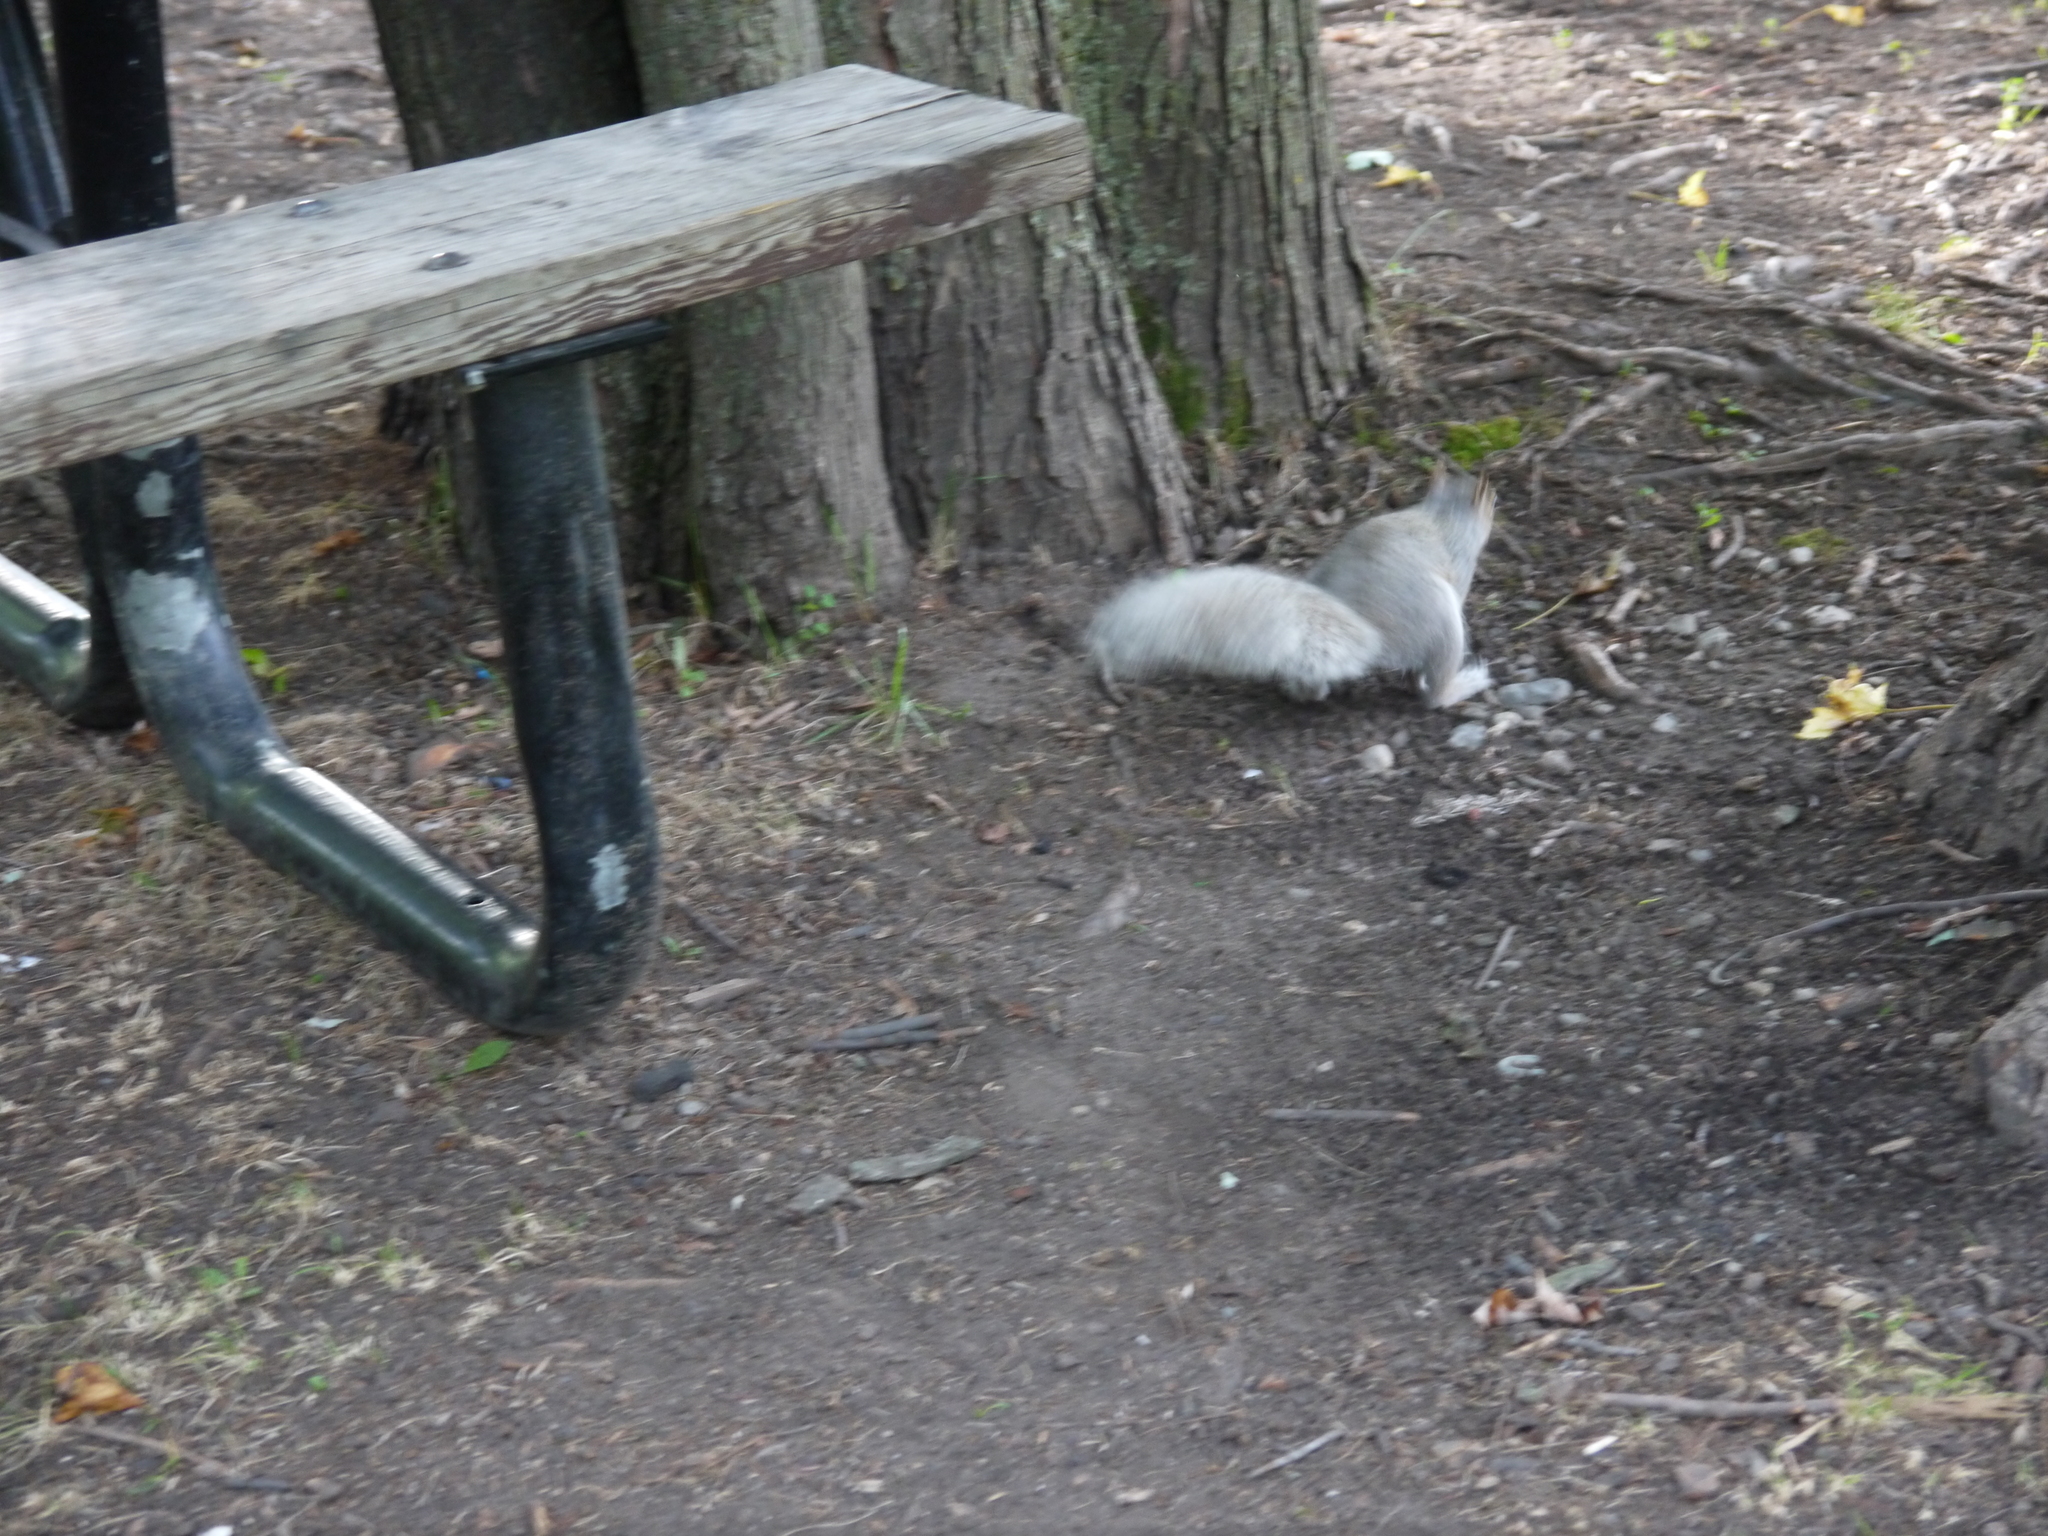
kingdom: Animalia
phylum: Chordata
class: Mammalia
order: Rodentia
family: Sciuridae
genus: Sciurus
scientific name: Sciurus carolinensis
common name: Eastern gray squirrel
